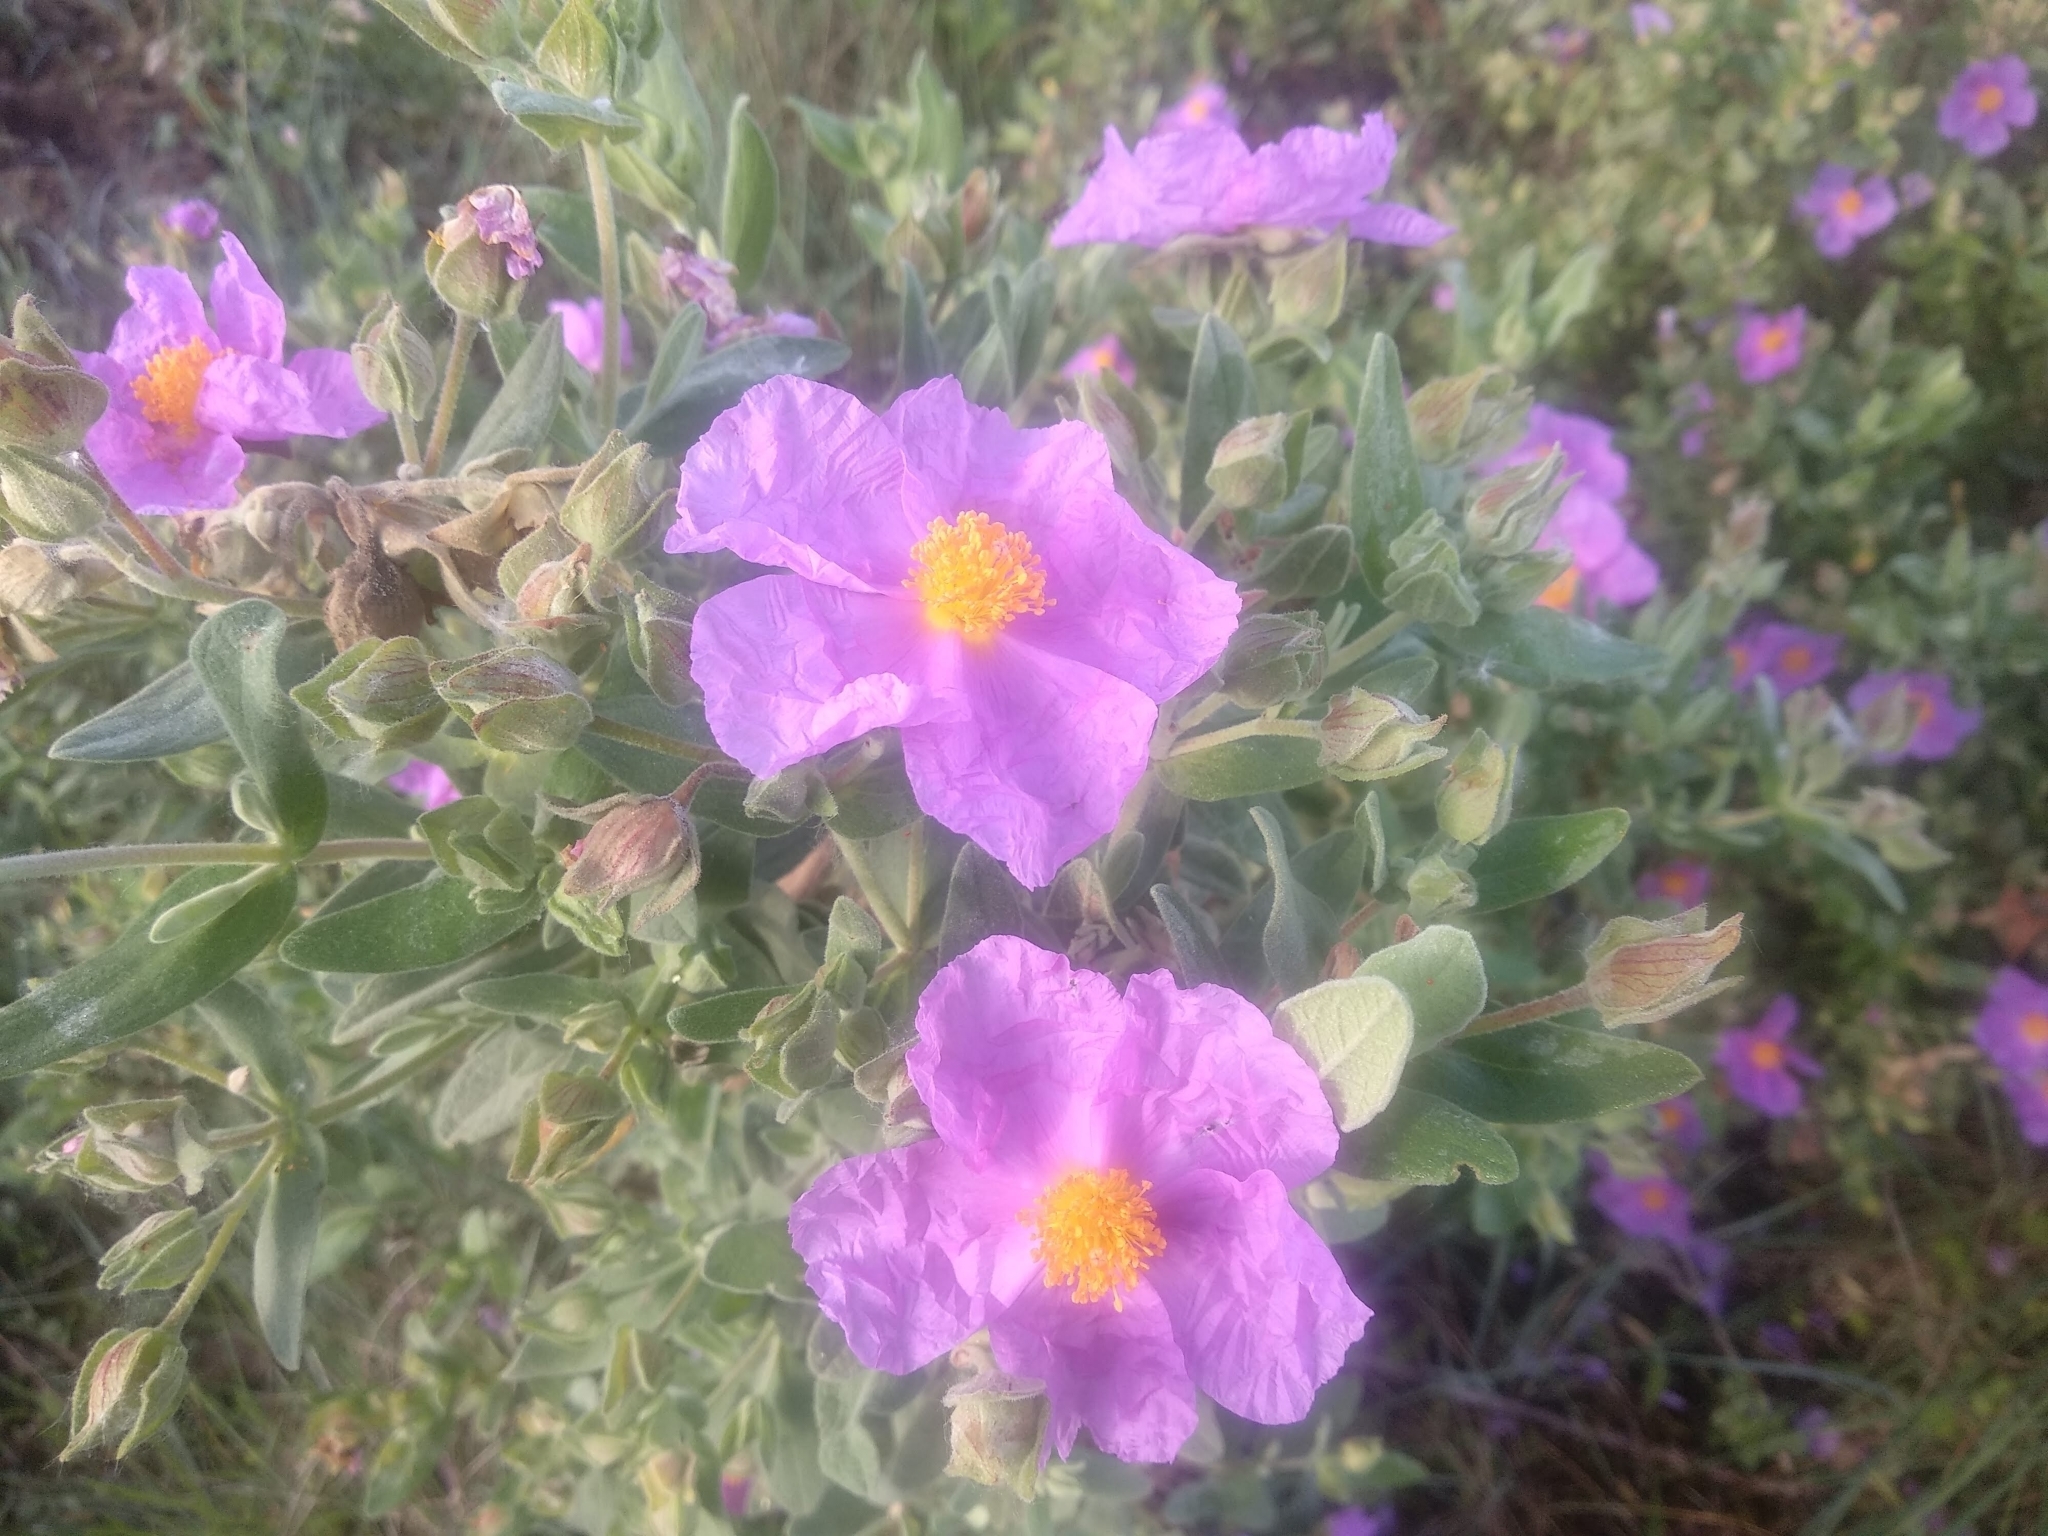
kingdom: Plantae
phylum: Tracheophyta
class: Magnoliopsida
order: Malvales
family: Cistaceae
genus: Cistus
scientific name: Cistus albidus
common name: White-leaf rock-rose
